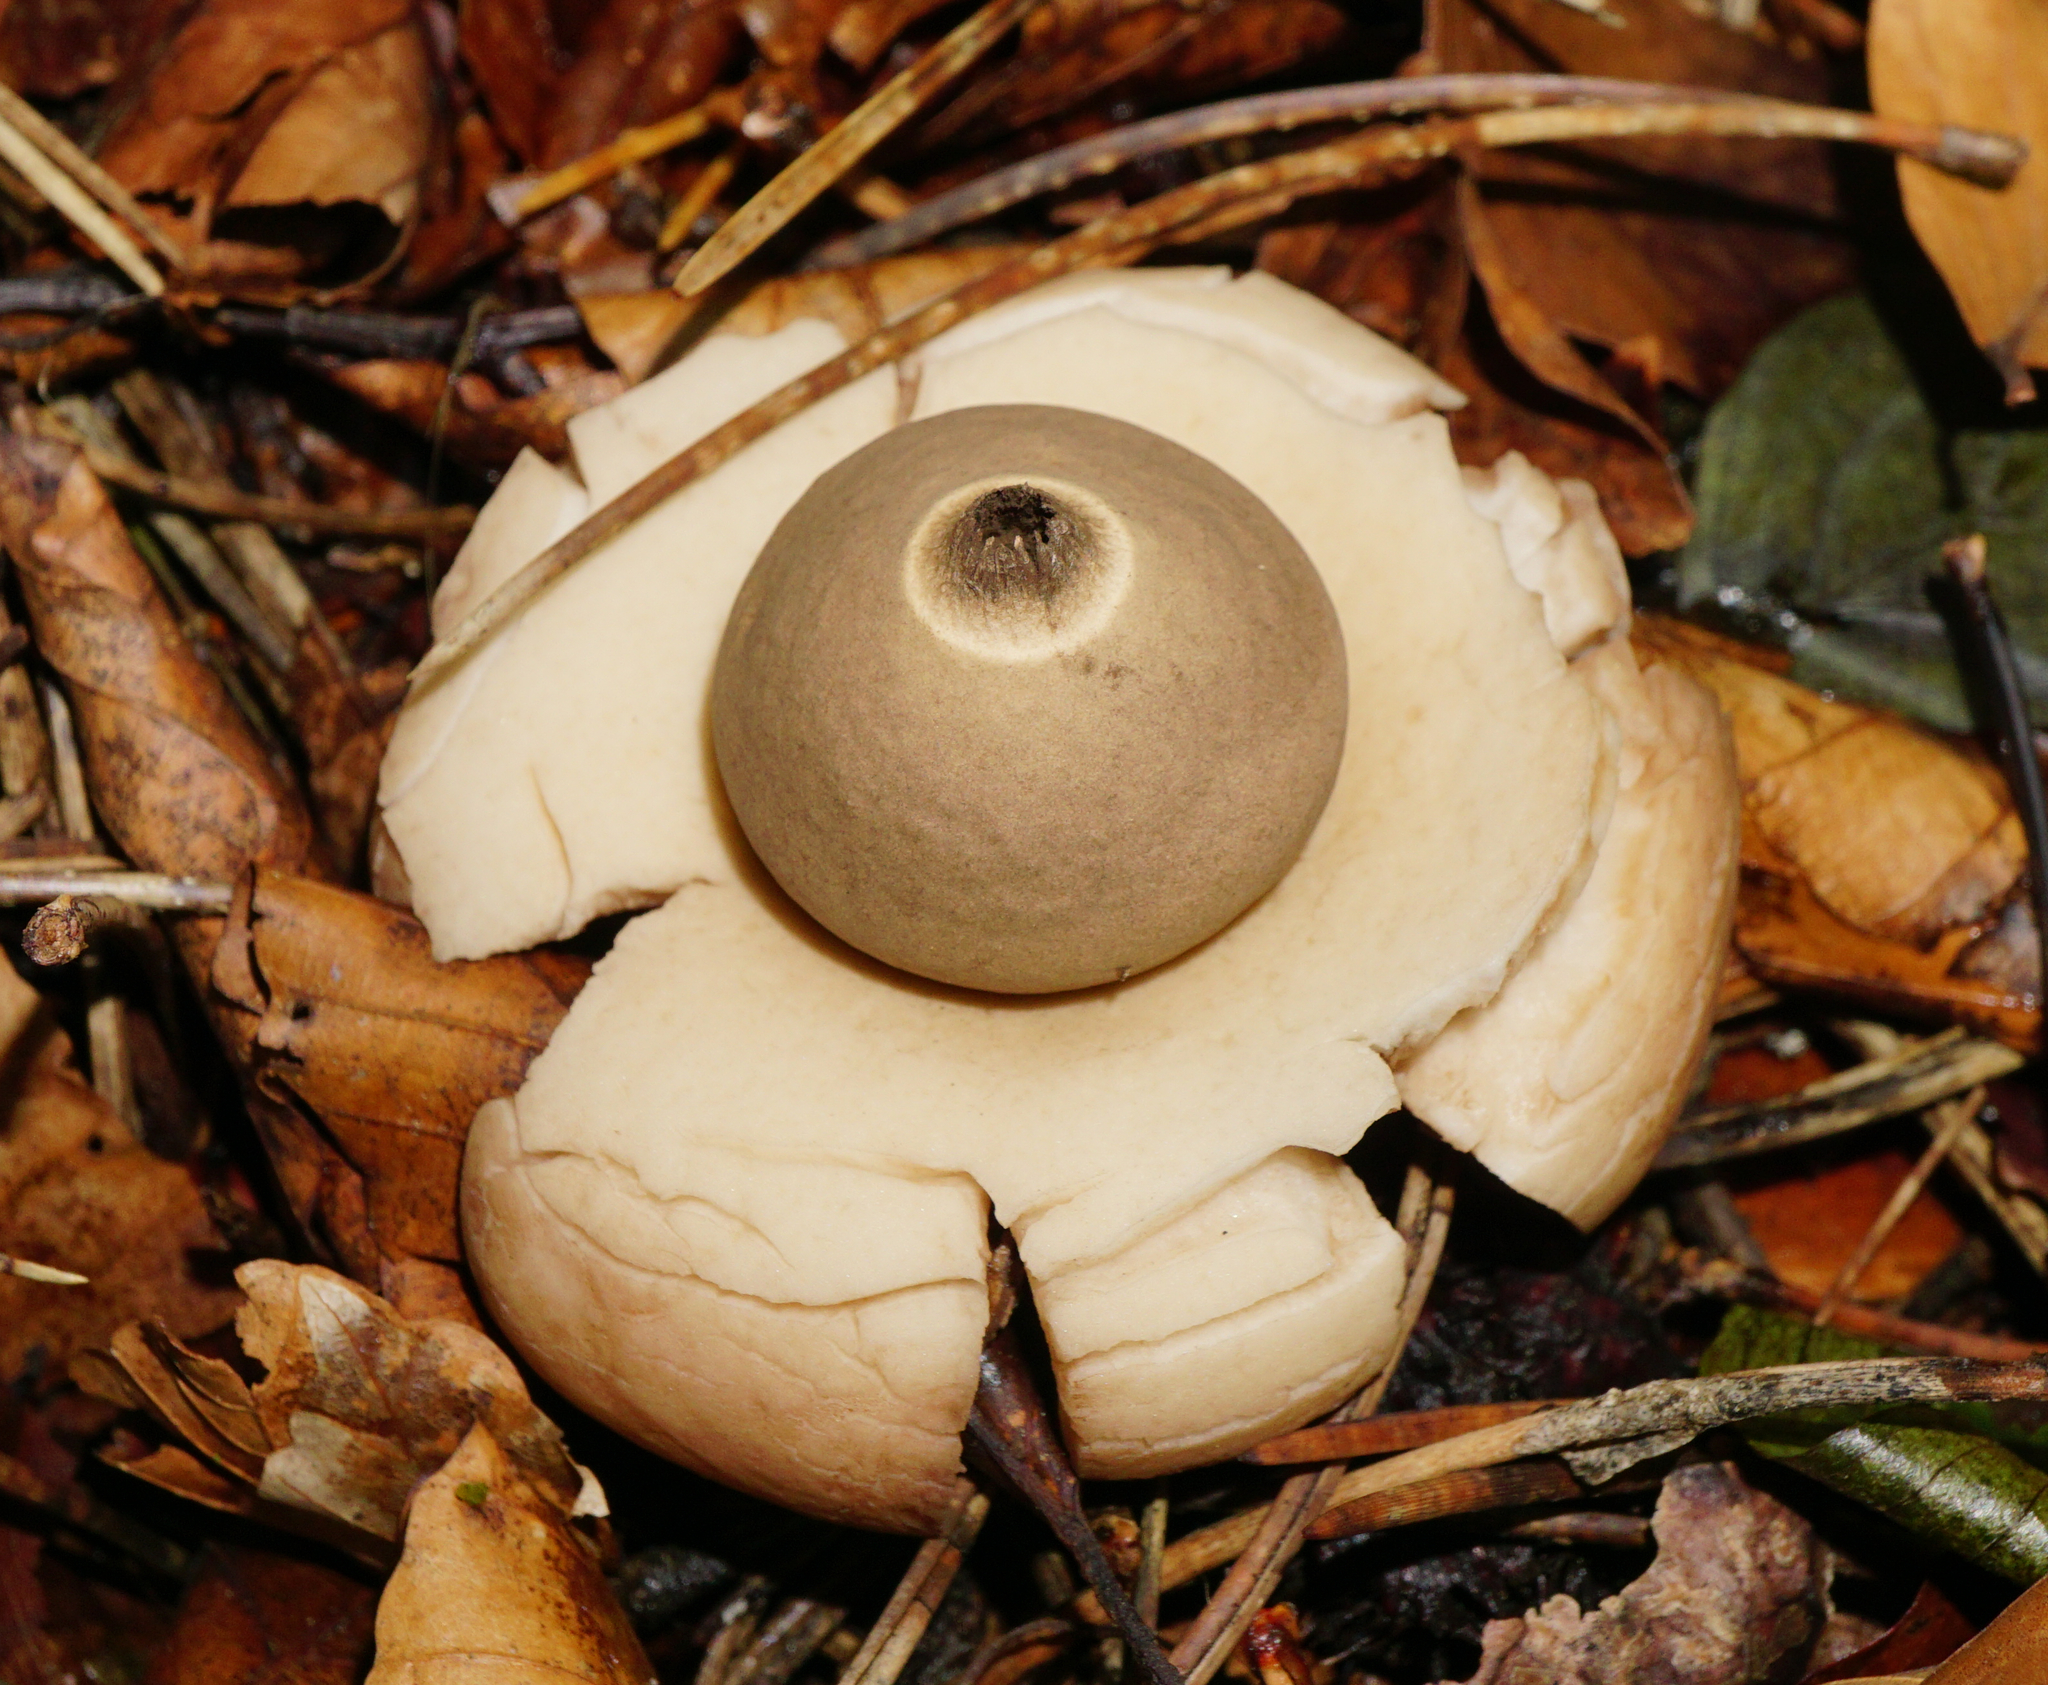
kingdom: Fungi
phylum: Basidiomycota
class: Agaricomycetes
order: Geastrales
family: Geastraceae
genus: Geastrum
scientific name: Geastrum triplex
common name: Collared earthstar
